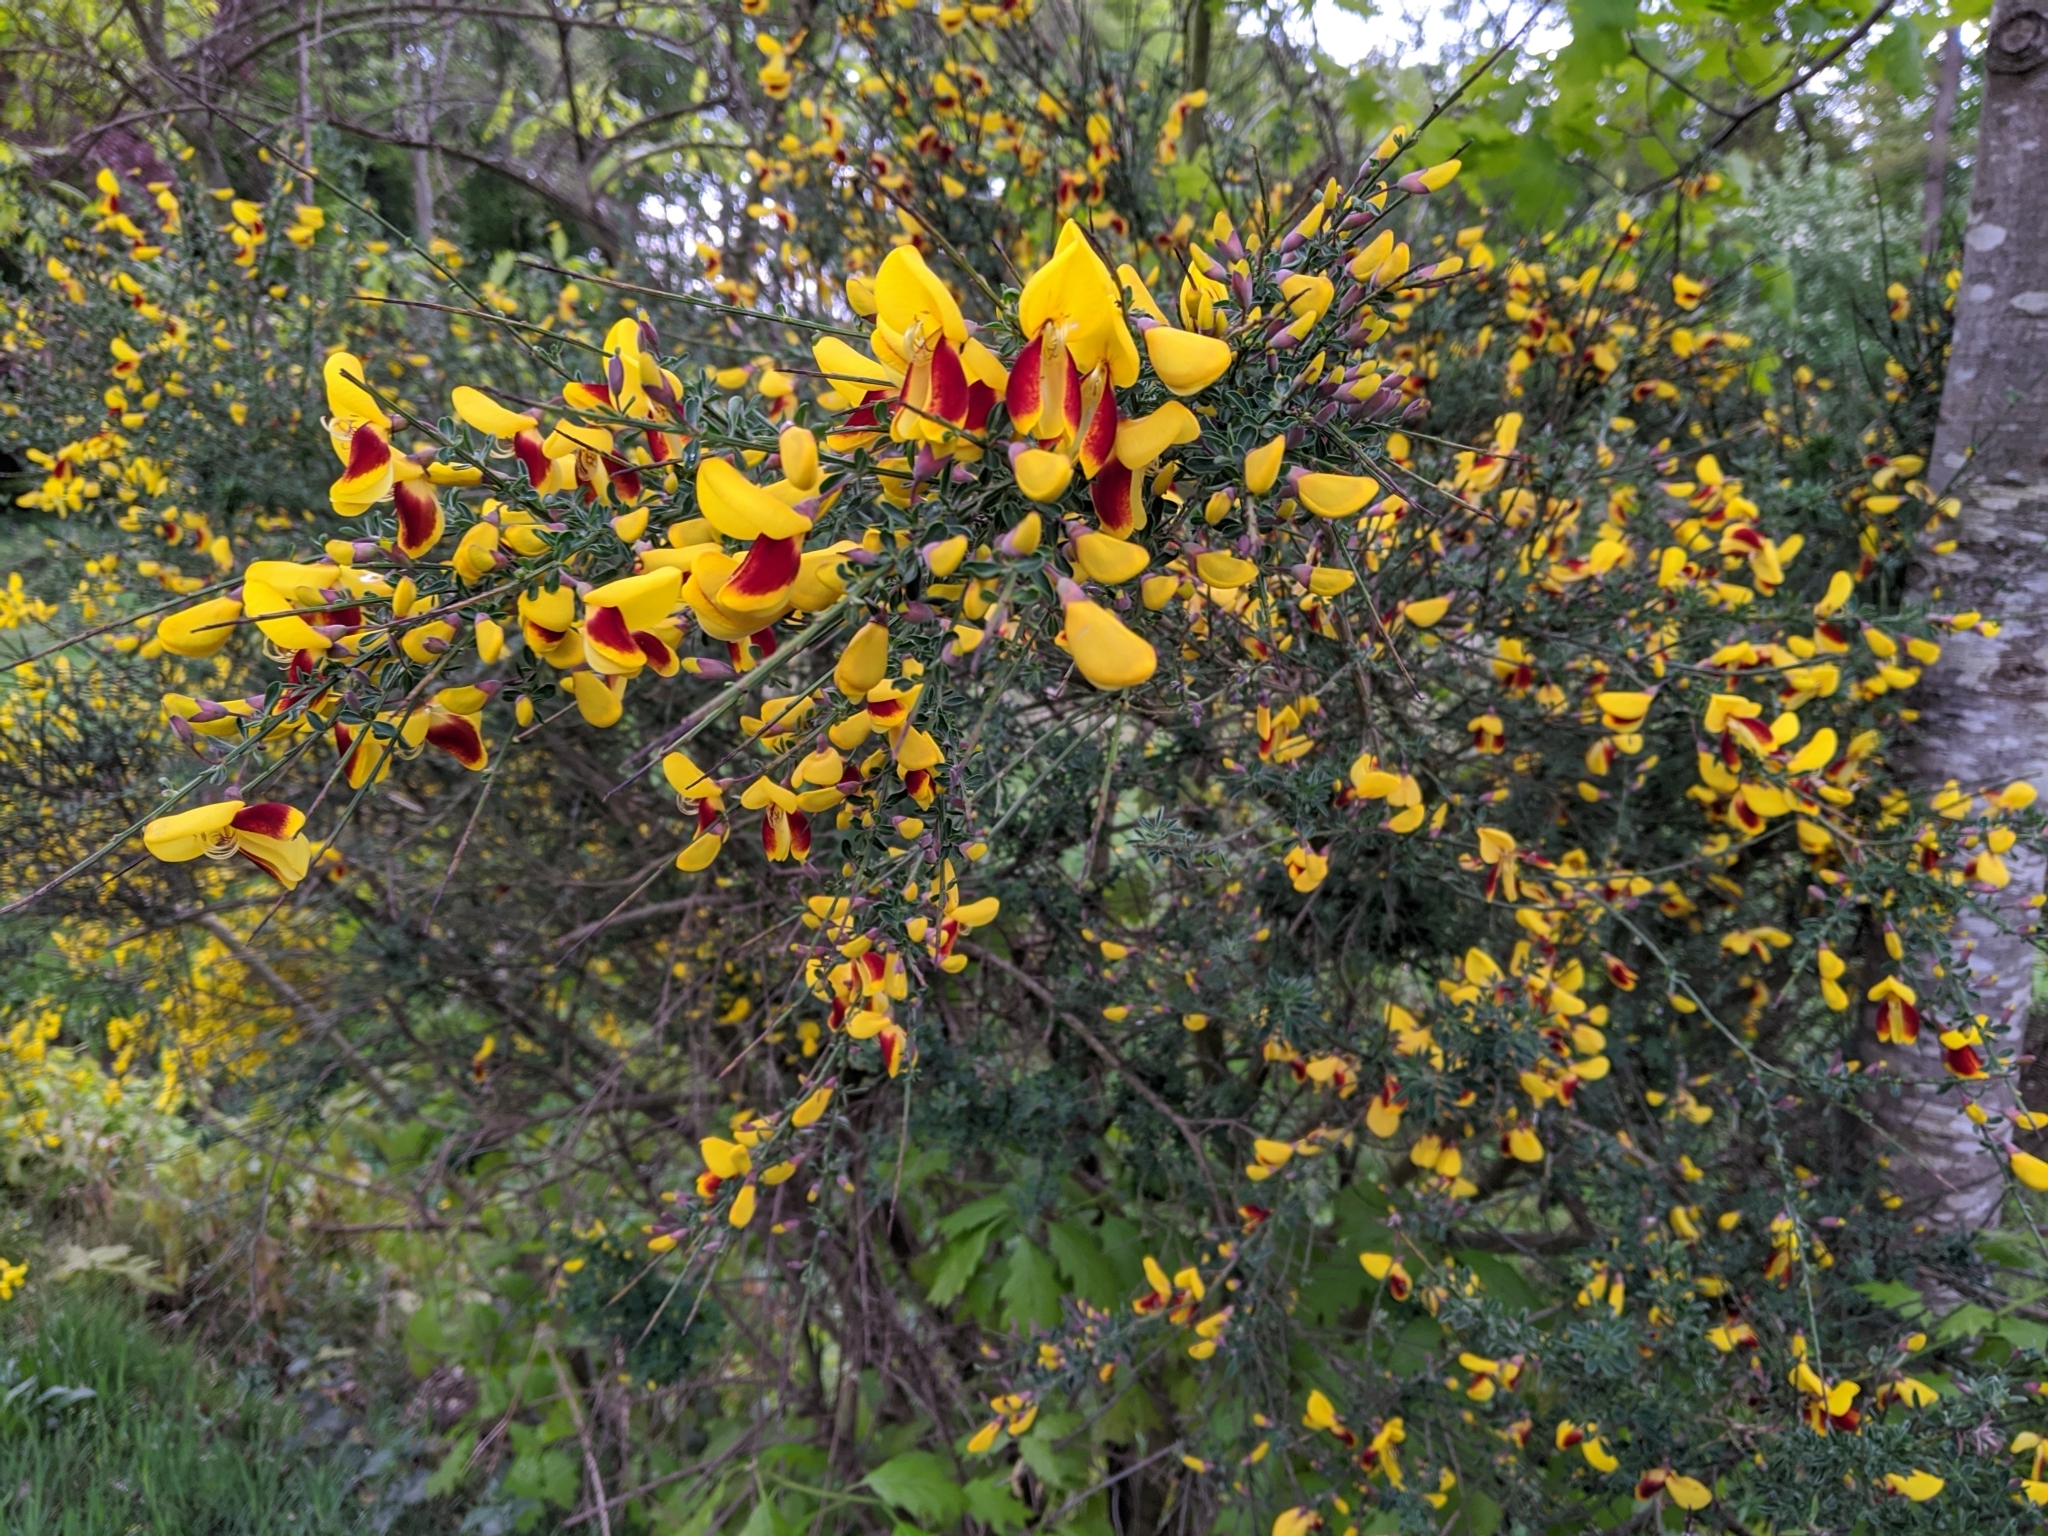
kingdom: Plantae
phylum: Tracheophyta
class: Magnoliopsida
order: Fabales
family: Fabaceae
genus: Cytisus
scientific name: Cytisus scoparius
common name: Scotch broom
